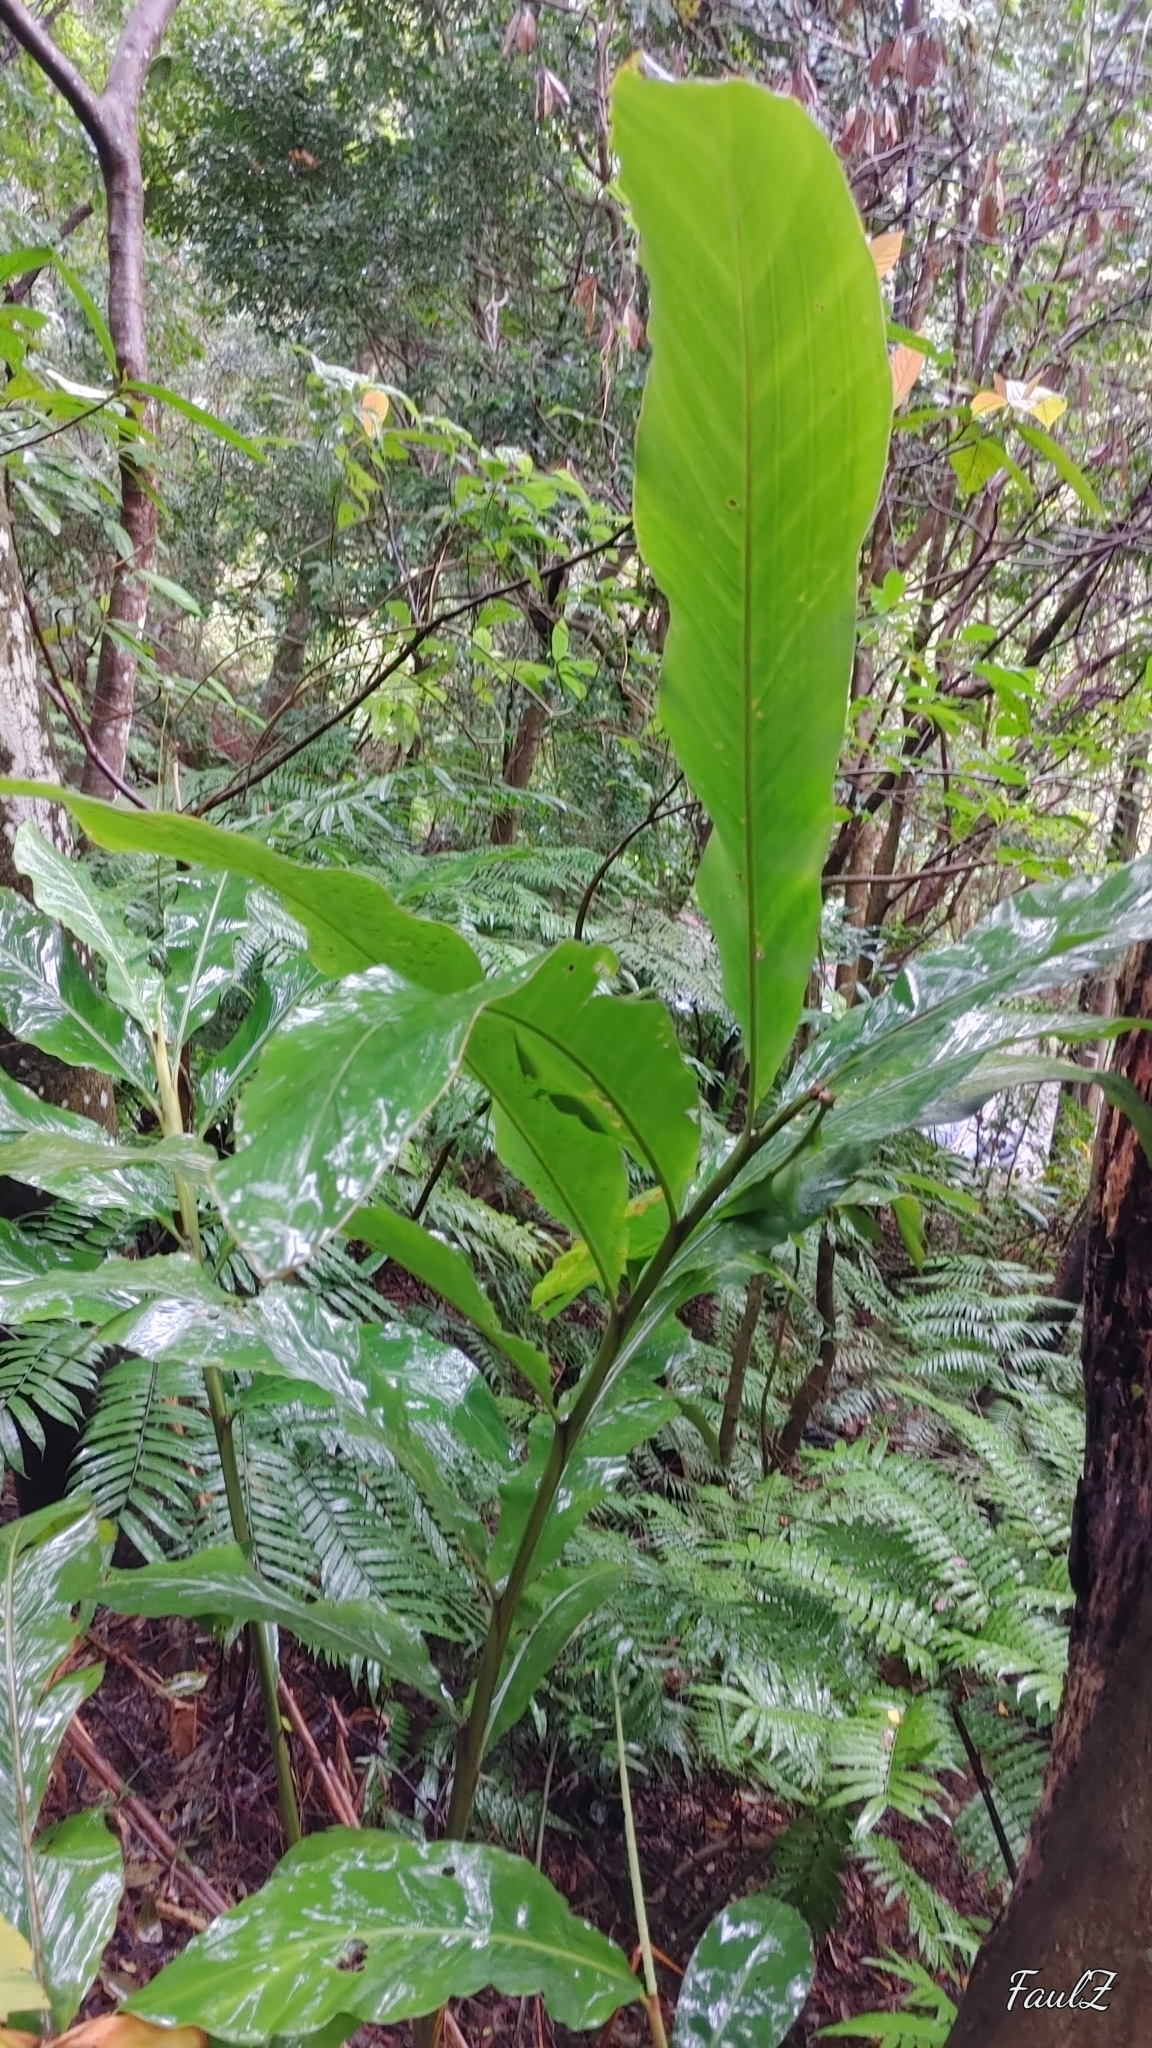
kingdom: Plantae
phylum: Tracheophyta
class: Liliopsida
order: Zingiberales
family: Zingiberaceae
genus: Alpinia
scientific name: Alpinia uraiensis
